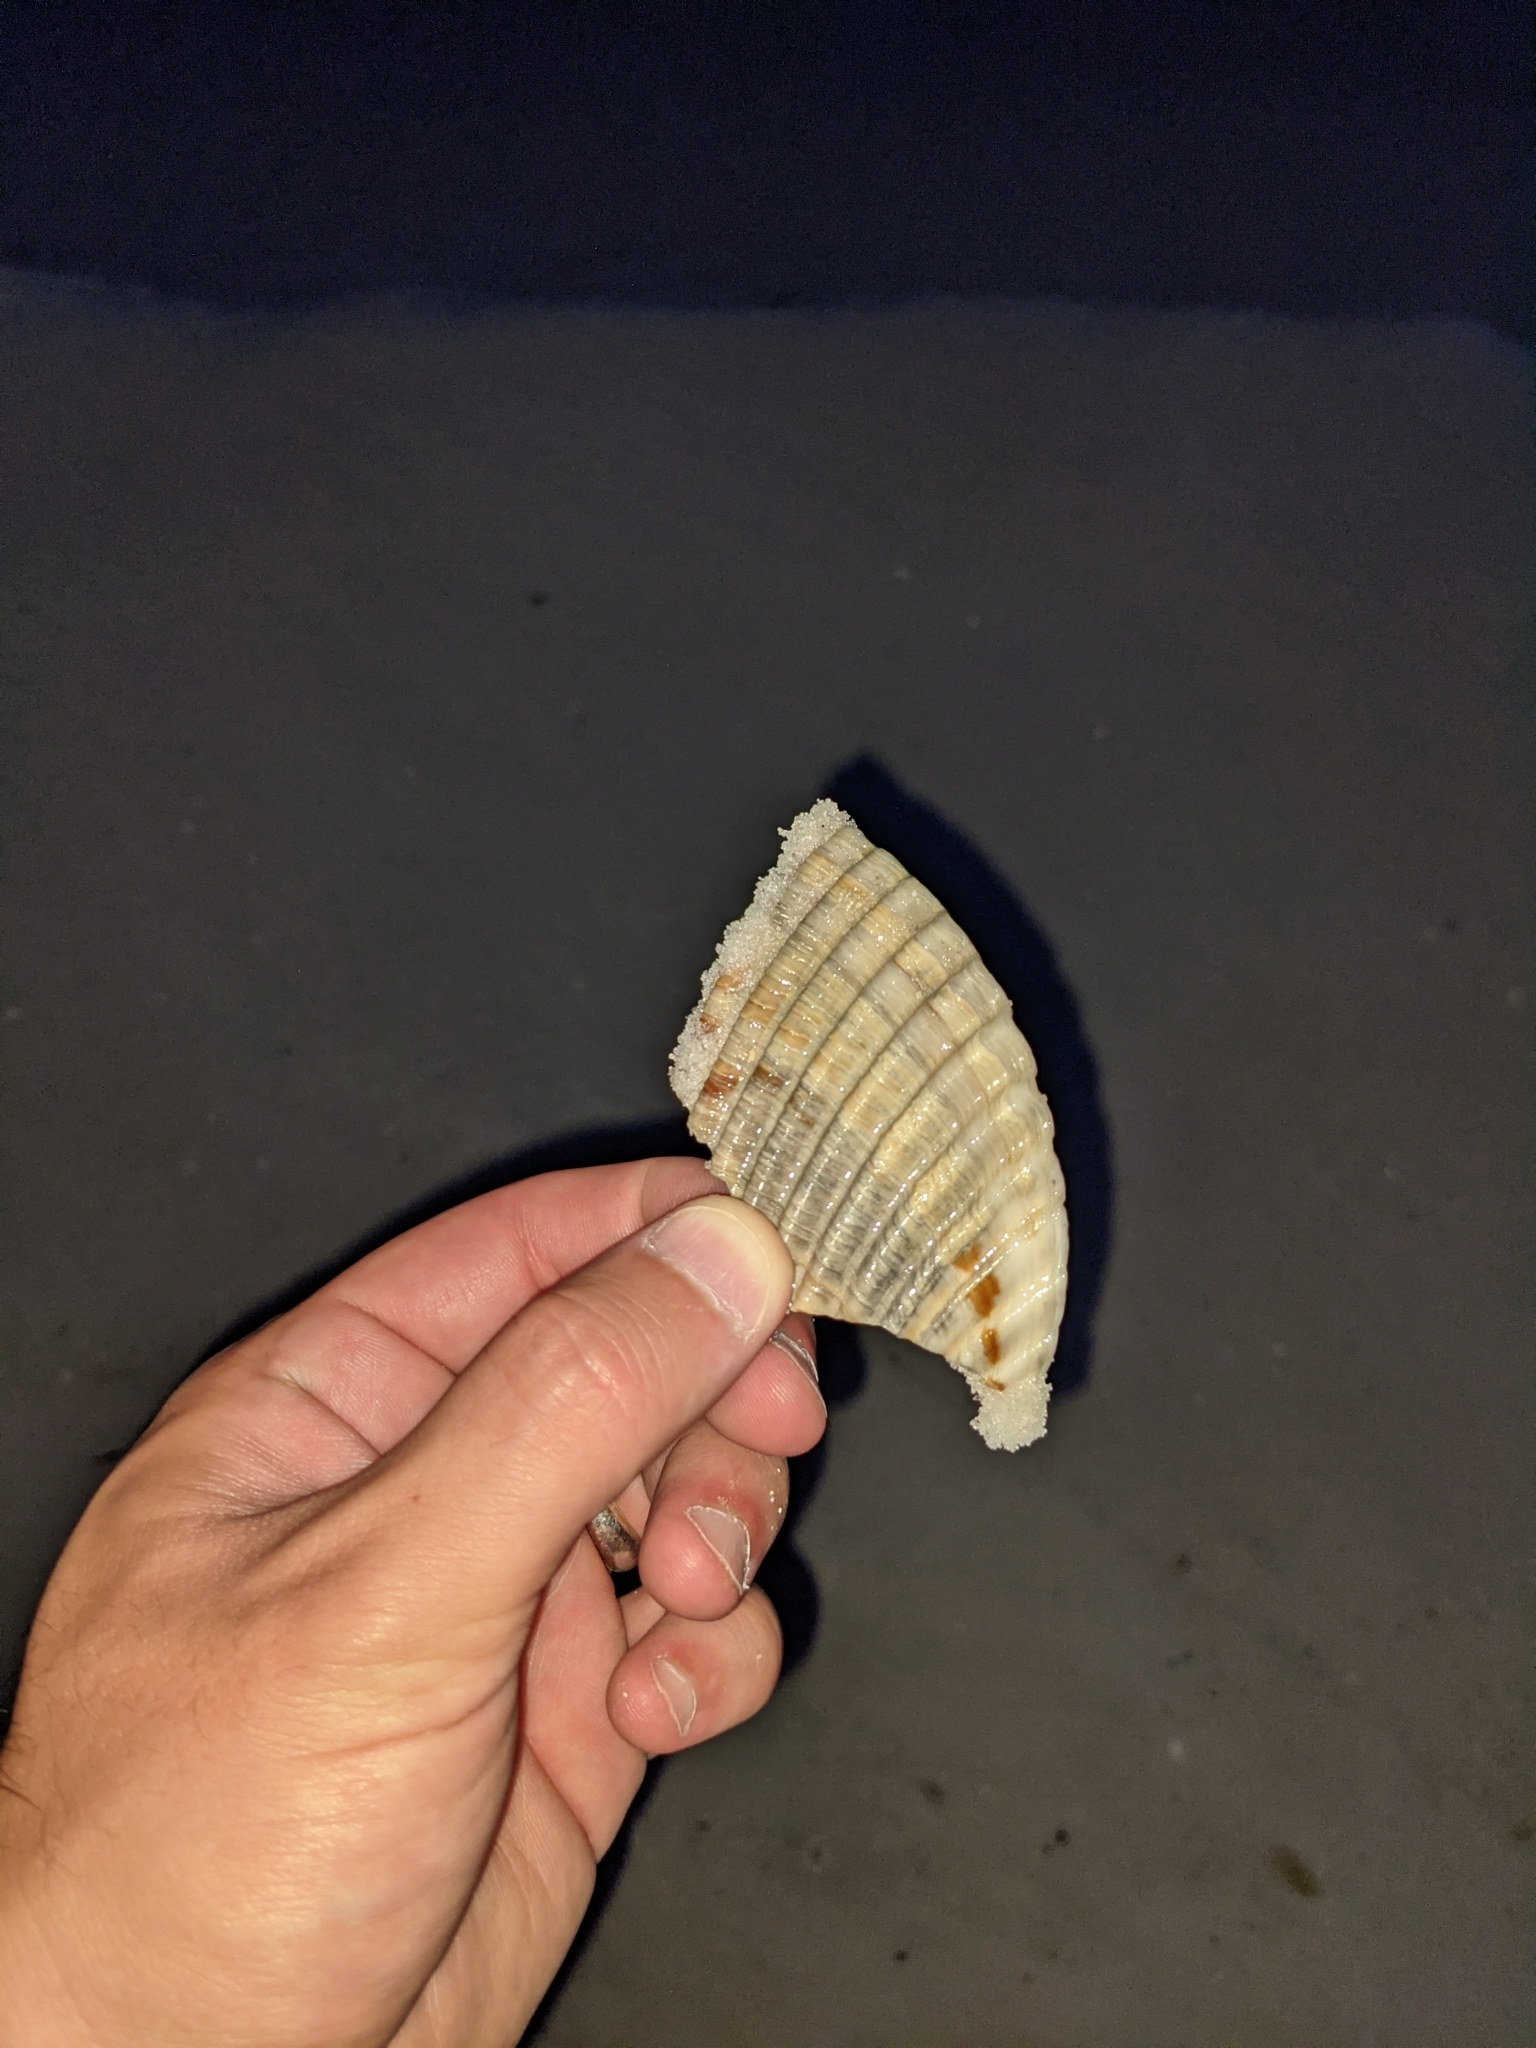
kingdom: Animalia
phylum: Mollusca
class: Bivalvia
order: Cardiida
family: Cardiidae
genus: Dinocardium
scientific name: Dinocardium robustum
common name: Atlantic giant cockle
